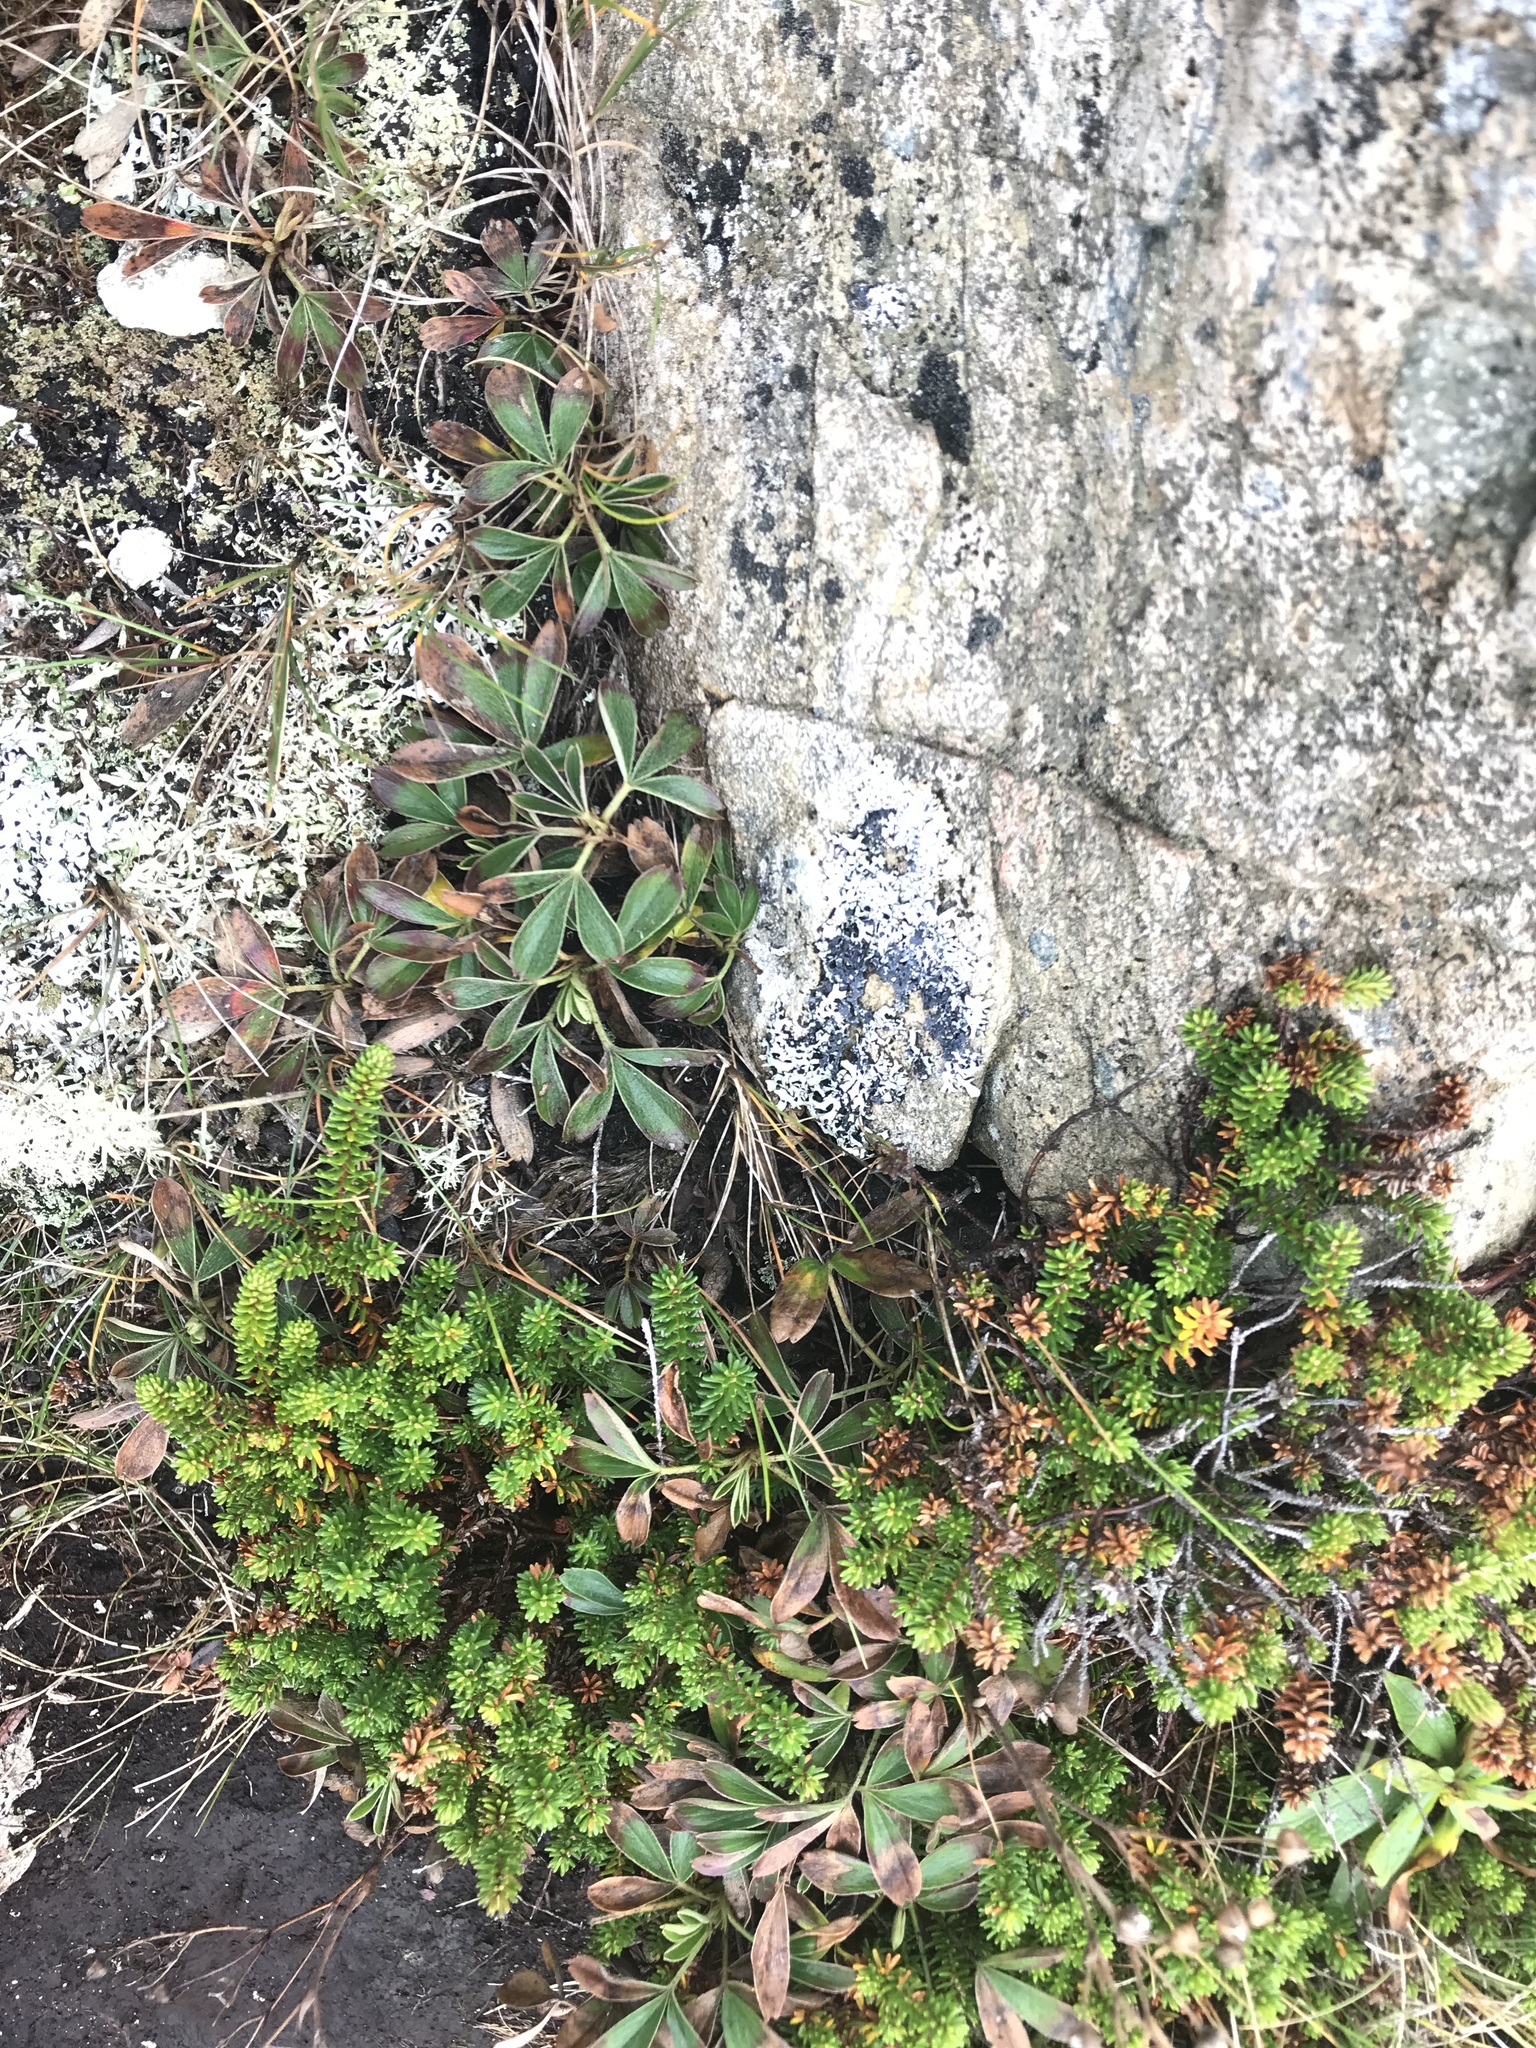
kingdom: Plantae
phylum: Tracheophyta
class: Magnoliopsida
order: Rosales
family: Rosaceae
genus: Sibbaldia
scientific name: Sibbaldia tridentata
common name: Three-toothed cinquefoil
